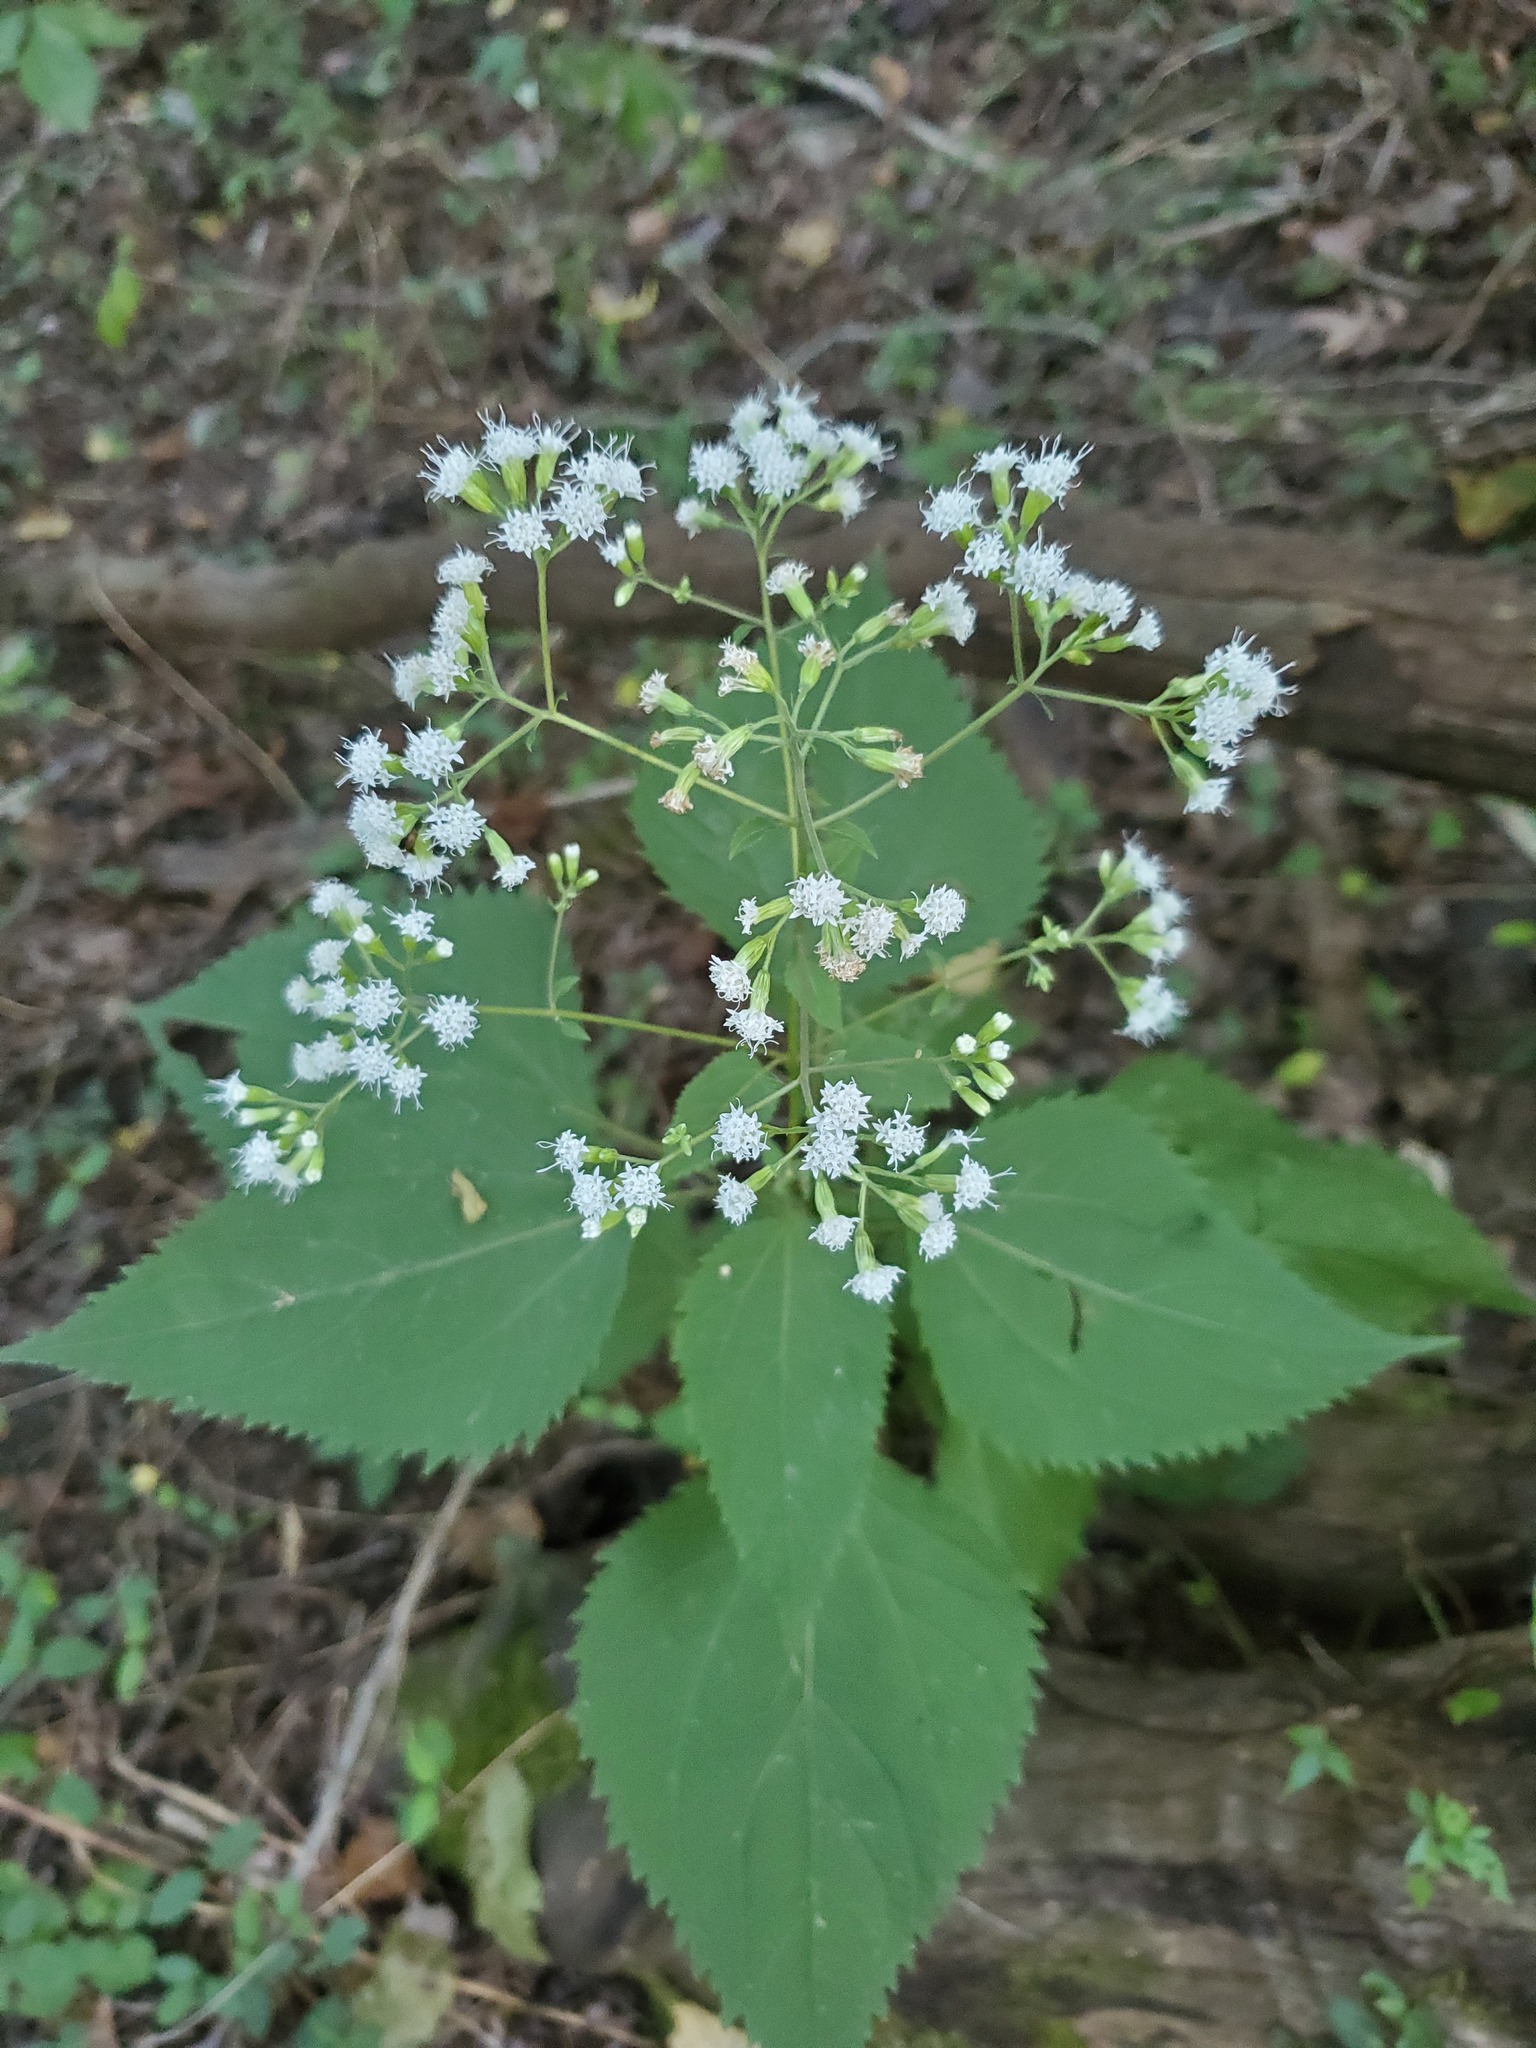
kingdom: Plantae
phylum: Tracheophyta
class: Magnoliopsida
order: Asterales
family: Asteraceae
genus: Ageratina
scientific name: Ageratina altissima
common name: White snakeroot
